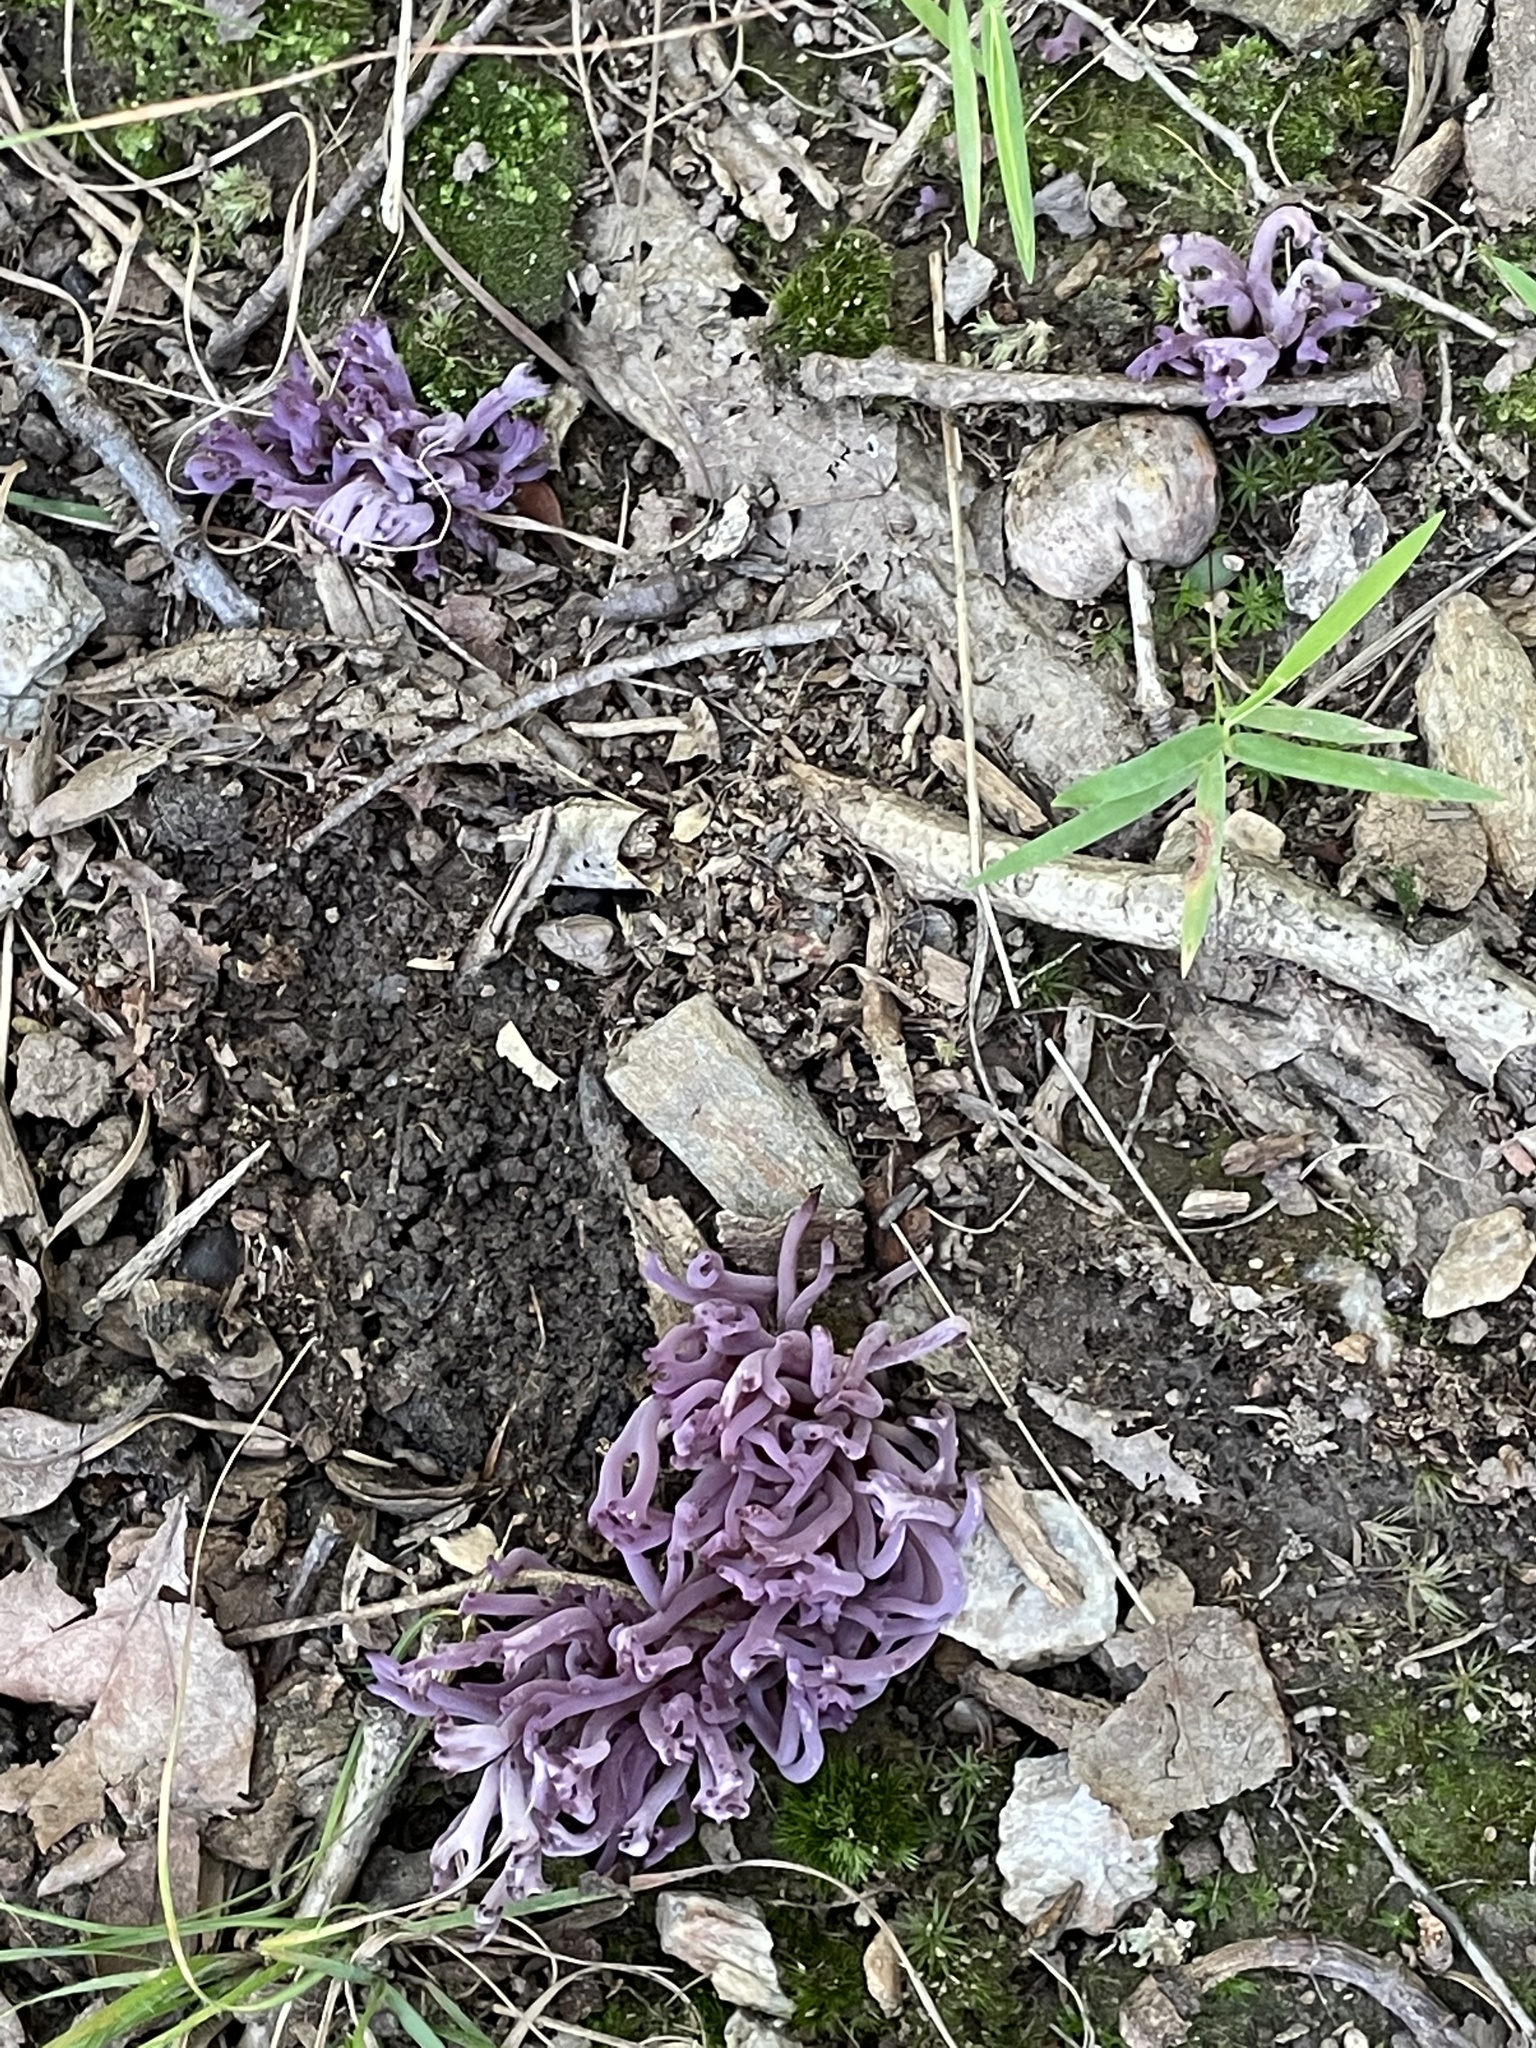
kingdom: Fungi
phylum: Basidiomycota
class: Agaricomycetes
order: Agaricales
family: Clavariaceae
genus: Clavaria
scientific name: Clavaria zollingeri
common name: Violet coral
